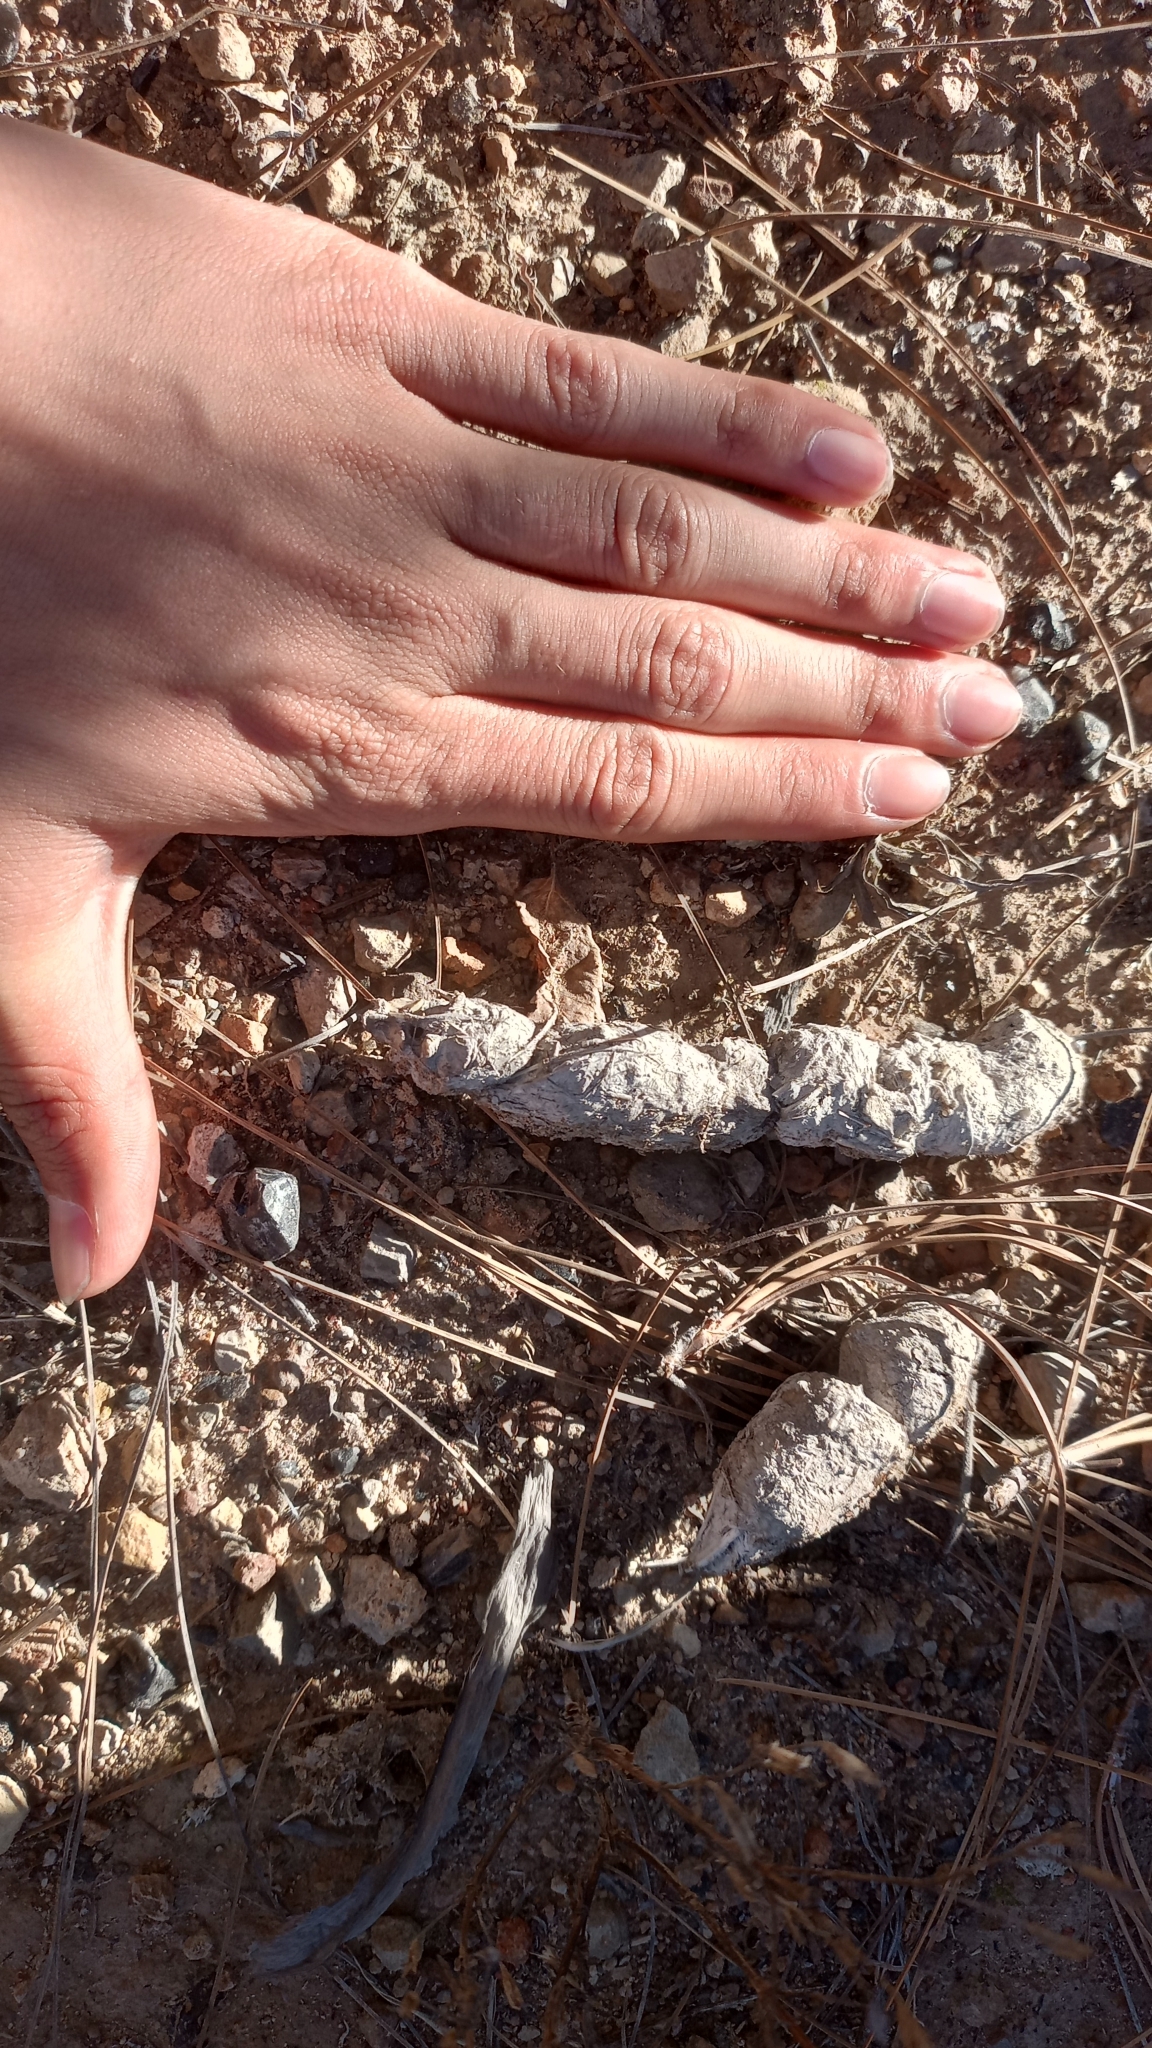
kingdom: Animalia
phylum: Chordata
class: Mammalia
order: Carnivora
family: Felidae
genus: Lynx
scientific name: Lynx rufus
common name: Bobcat
